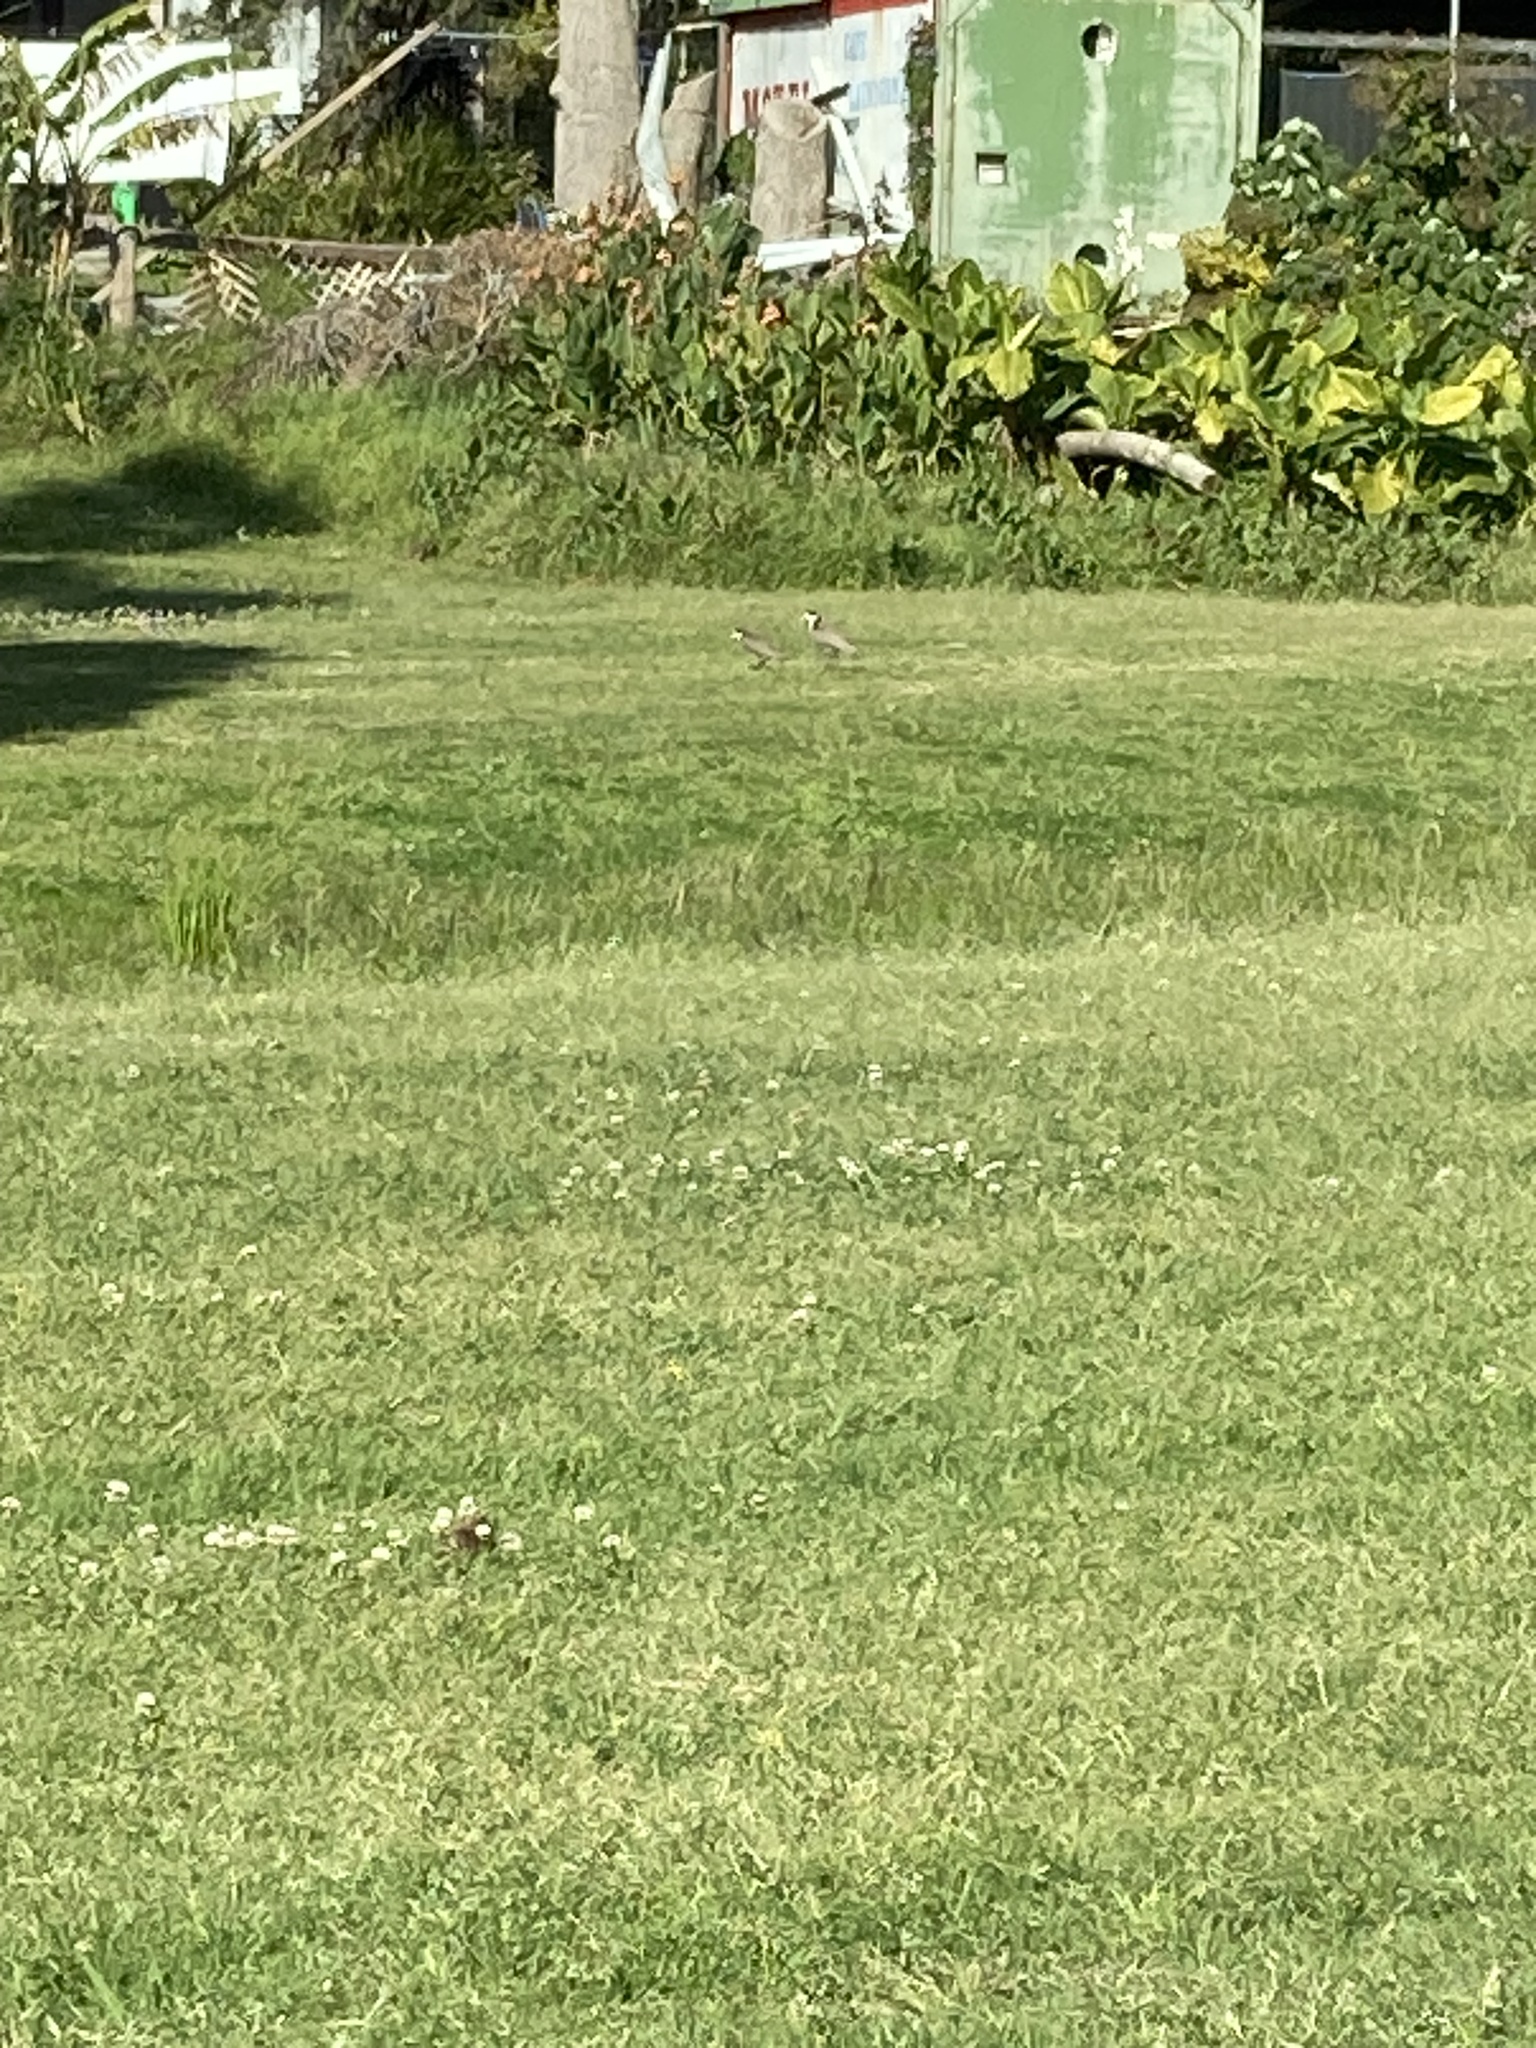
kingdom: Animalia
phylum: Chordata
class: Aves
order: Charadriiformes
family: Charadriidae
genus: Vanellus
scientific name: Vanellus miles
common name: Masked lapwing
